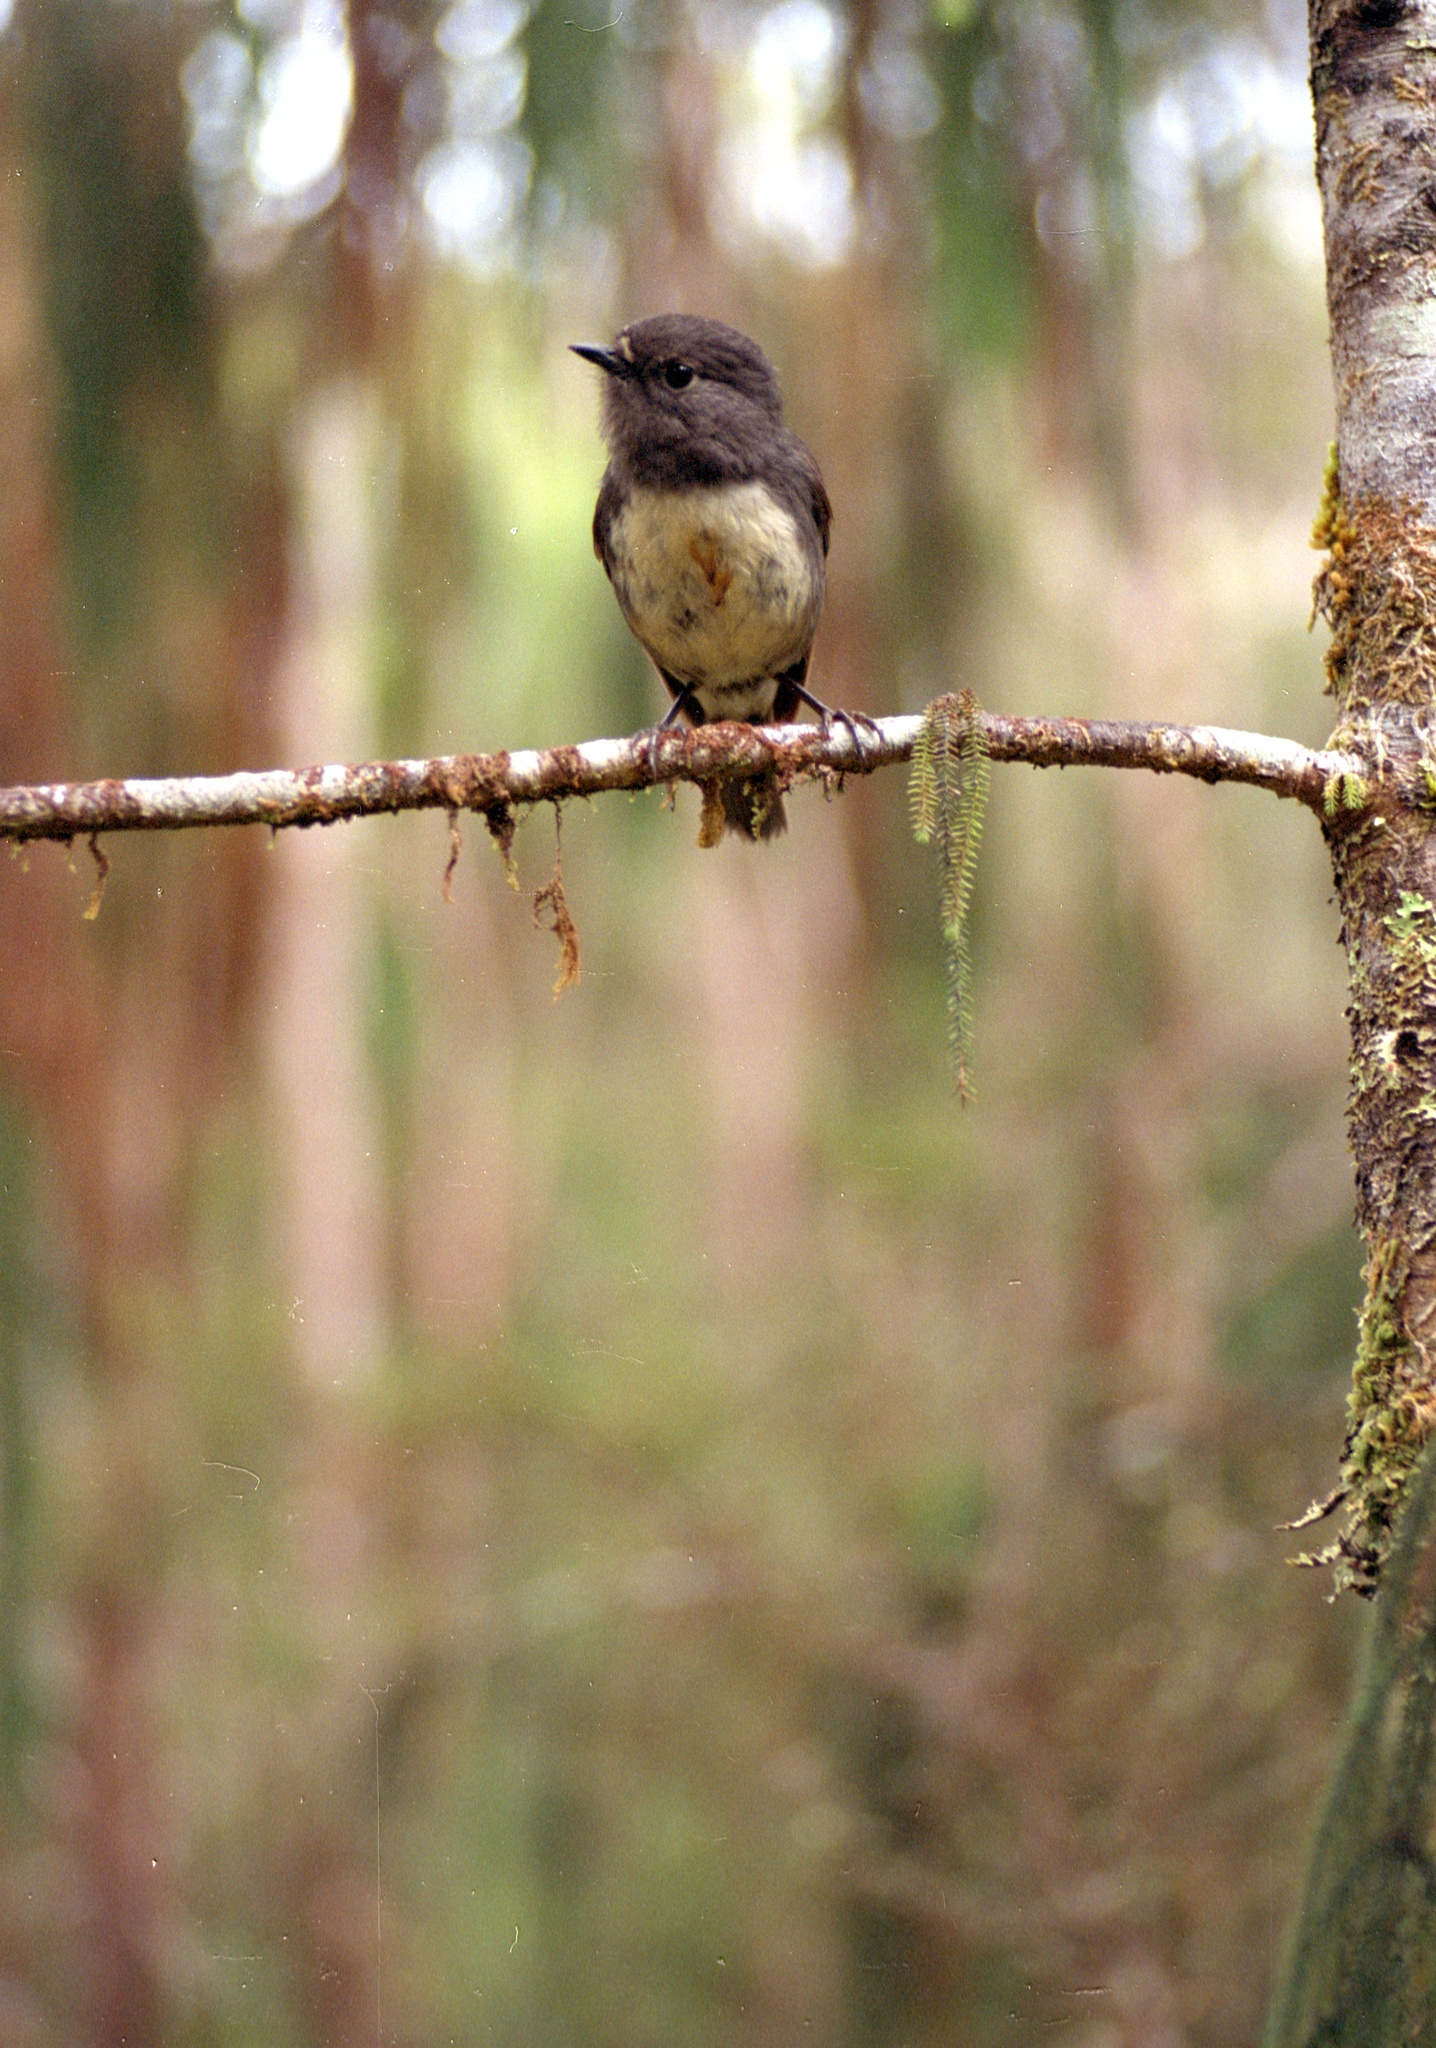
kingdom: Animalia
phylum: Chordata
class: Aves
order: Passeriformes
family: Petroicidae
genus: Petroica
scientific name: Petroica australis
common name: New zealand robin
